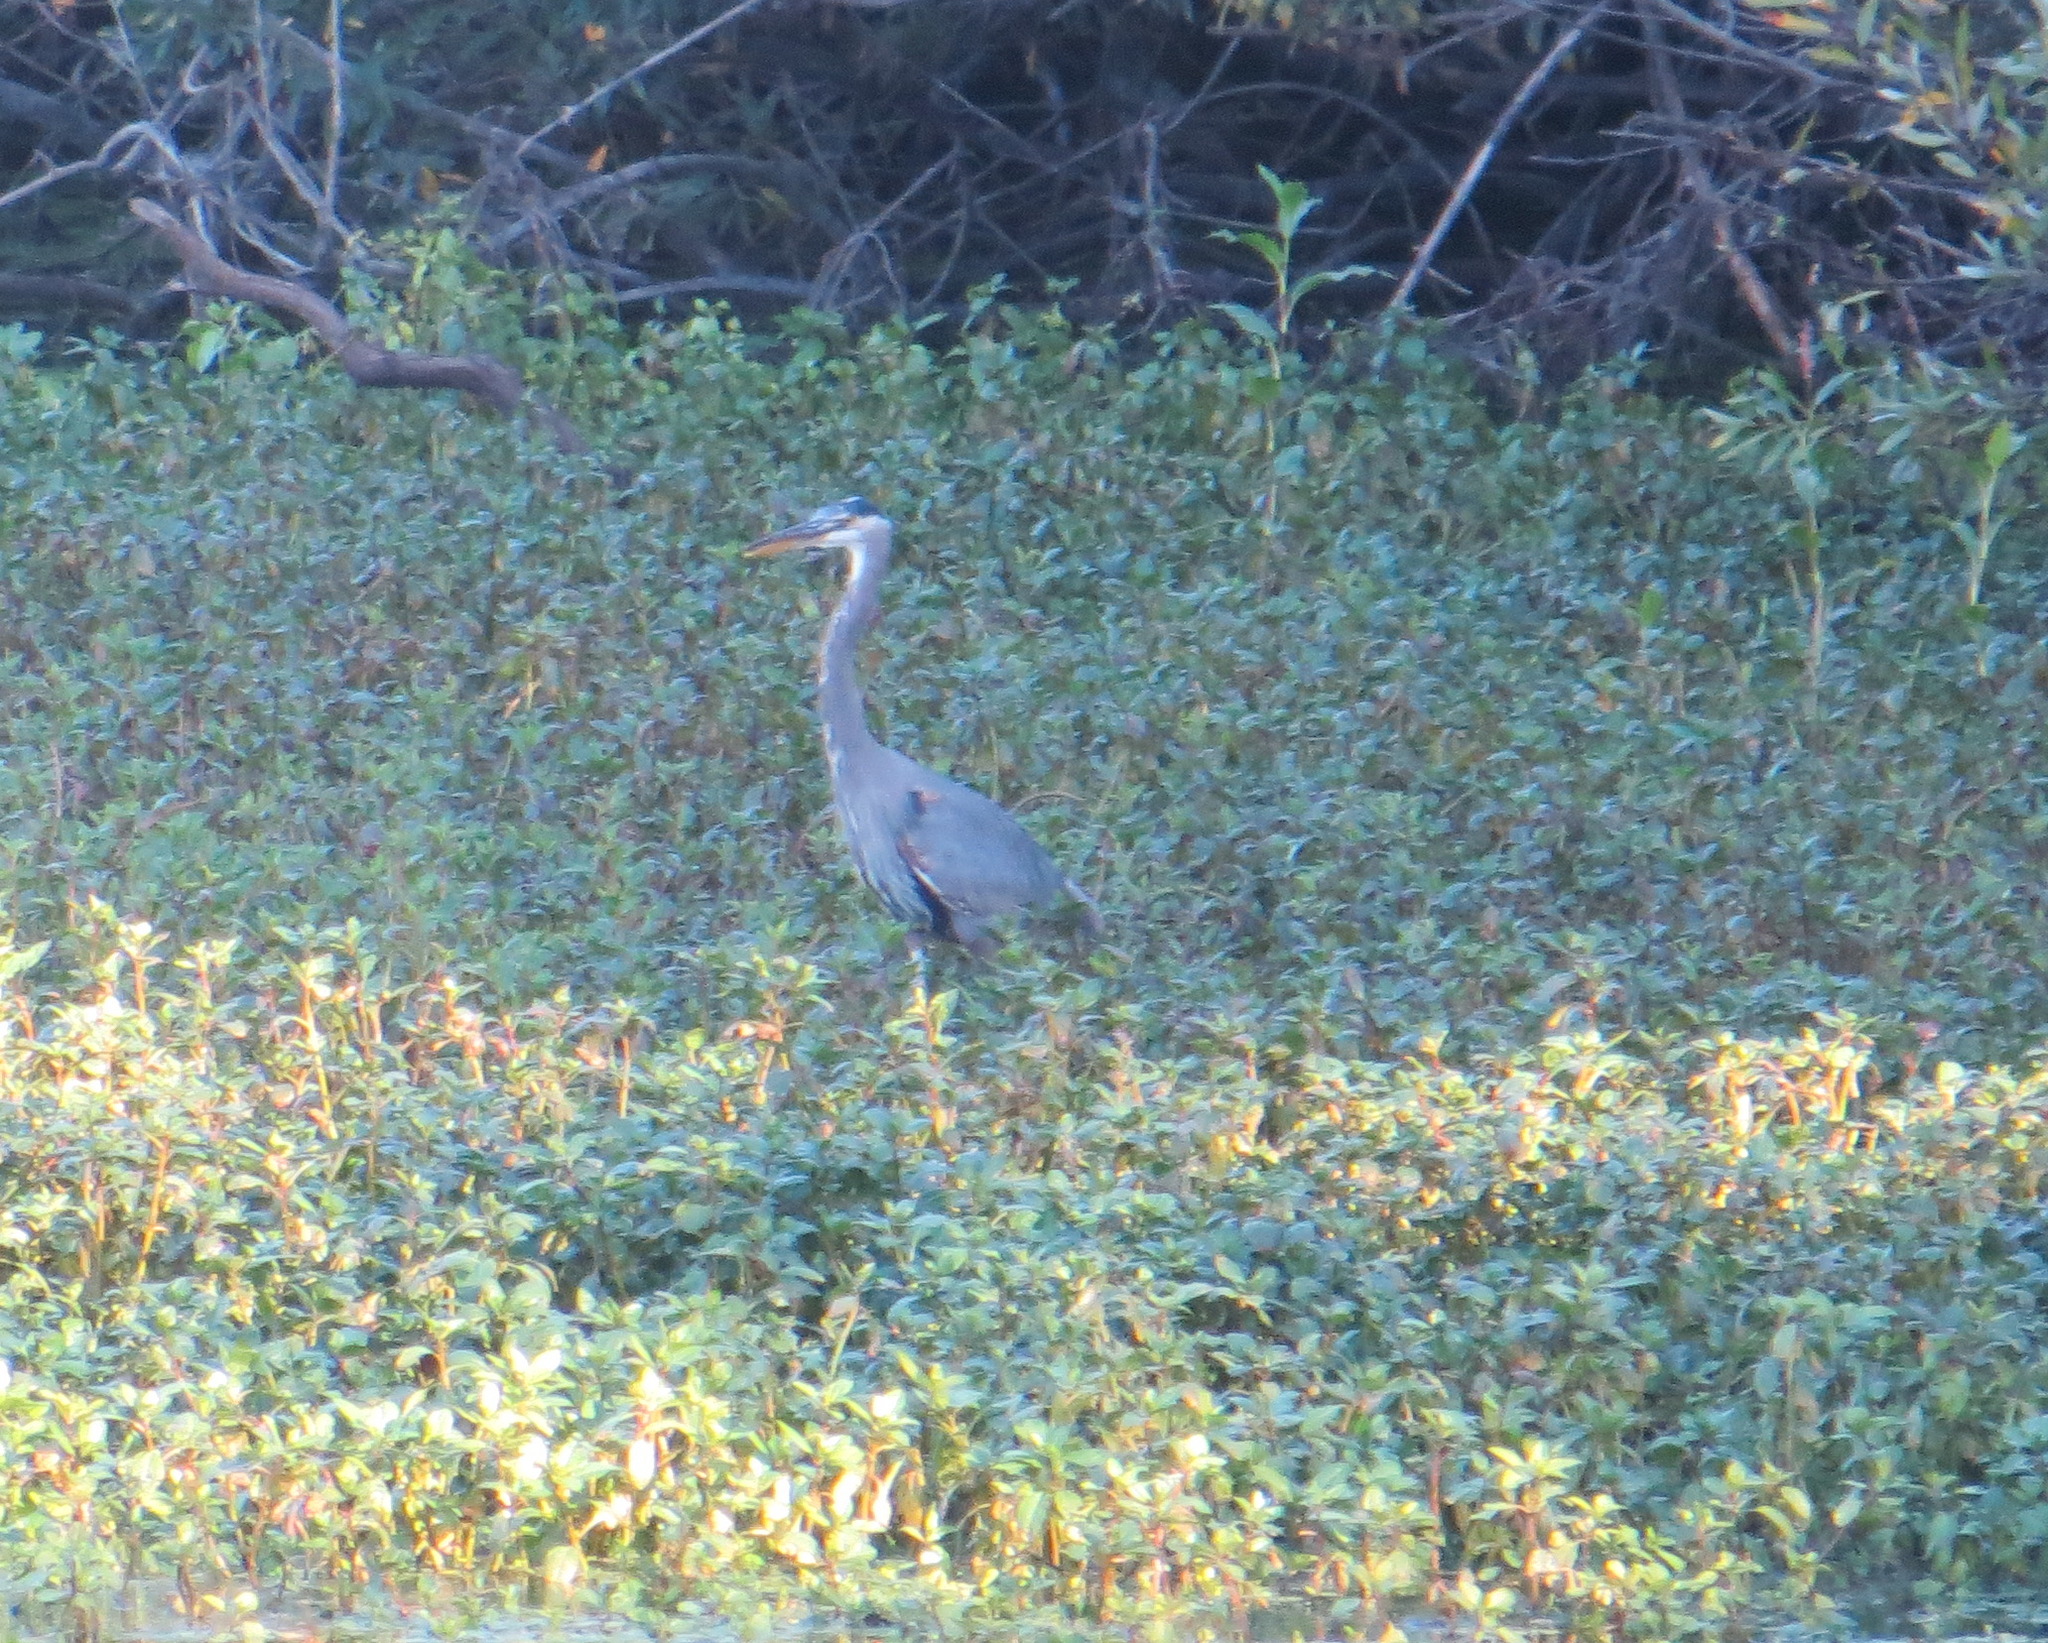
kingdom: Animalia
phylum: Chordata
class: Aves
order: Pelecaniformes
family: Ardeidae
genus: Ardea
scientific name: Ardea herodias
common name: Great blue heron
